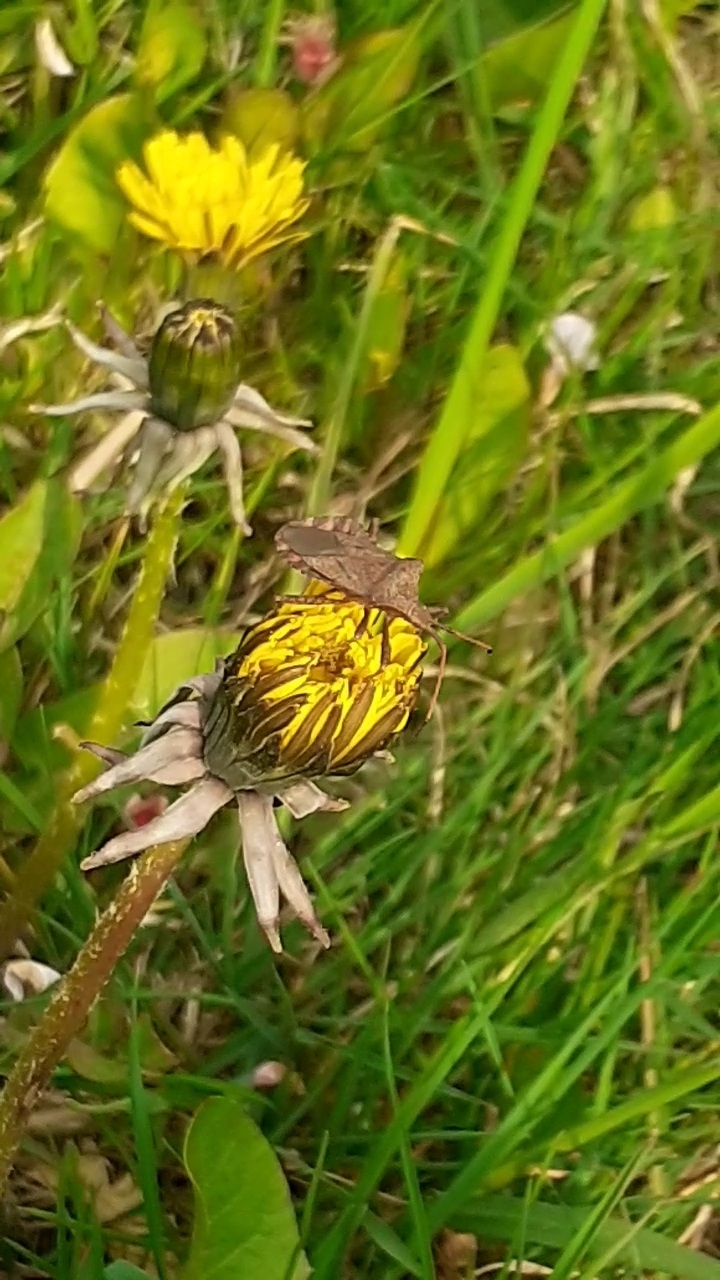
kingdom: Animalia
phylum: Arthropoda
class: Insecta
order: Hemiptera
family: Coreidae
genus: Coreus
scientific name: Coreus marginatus
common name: Dock bug
